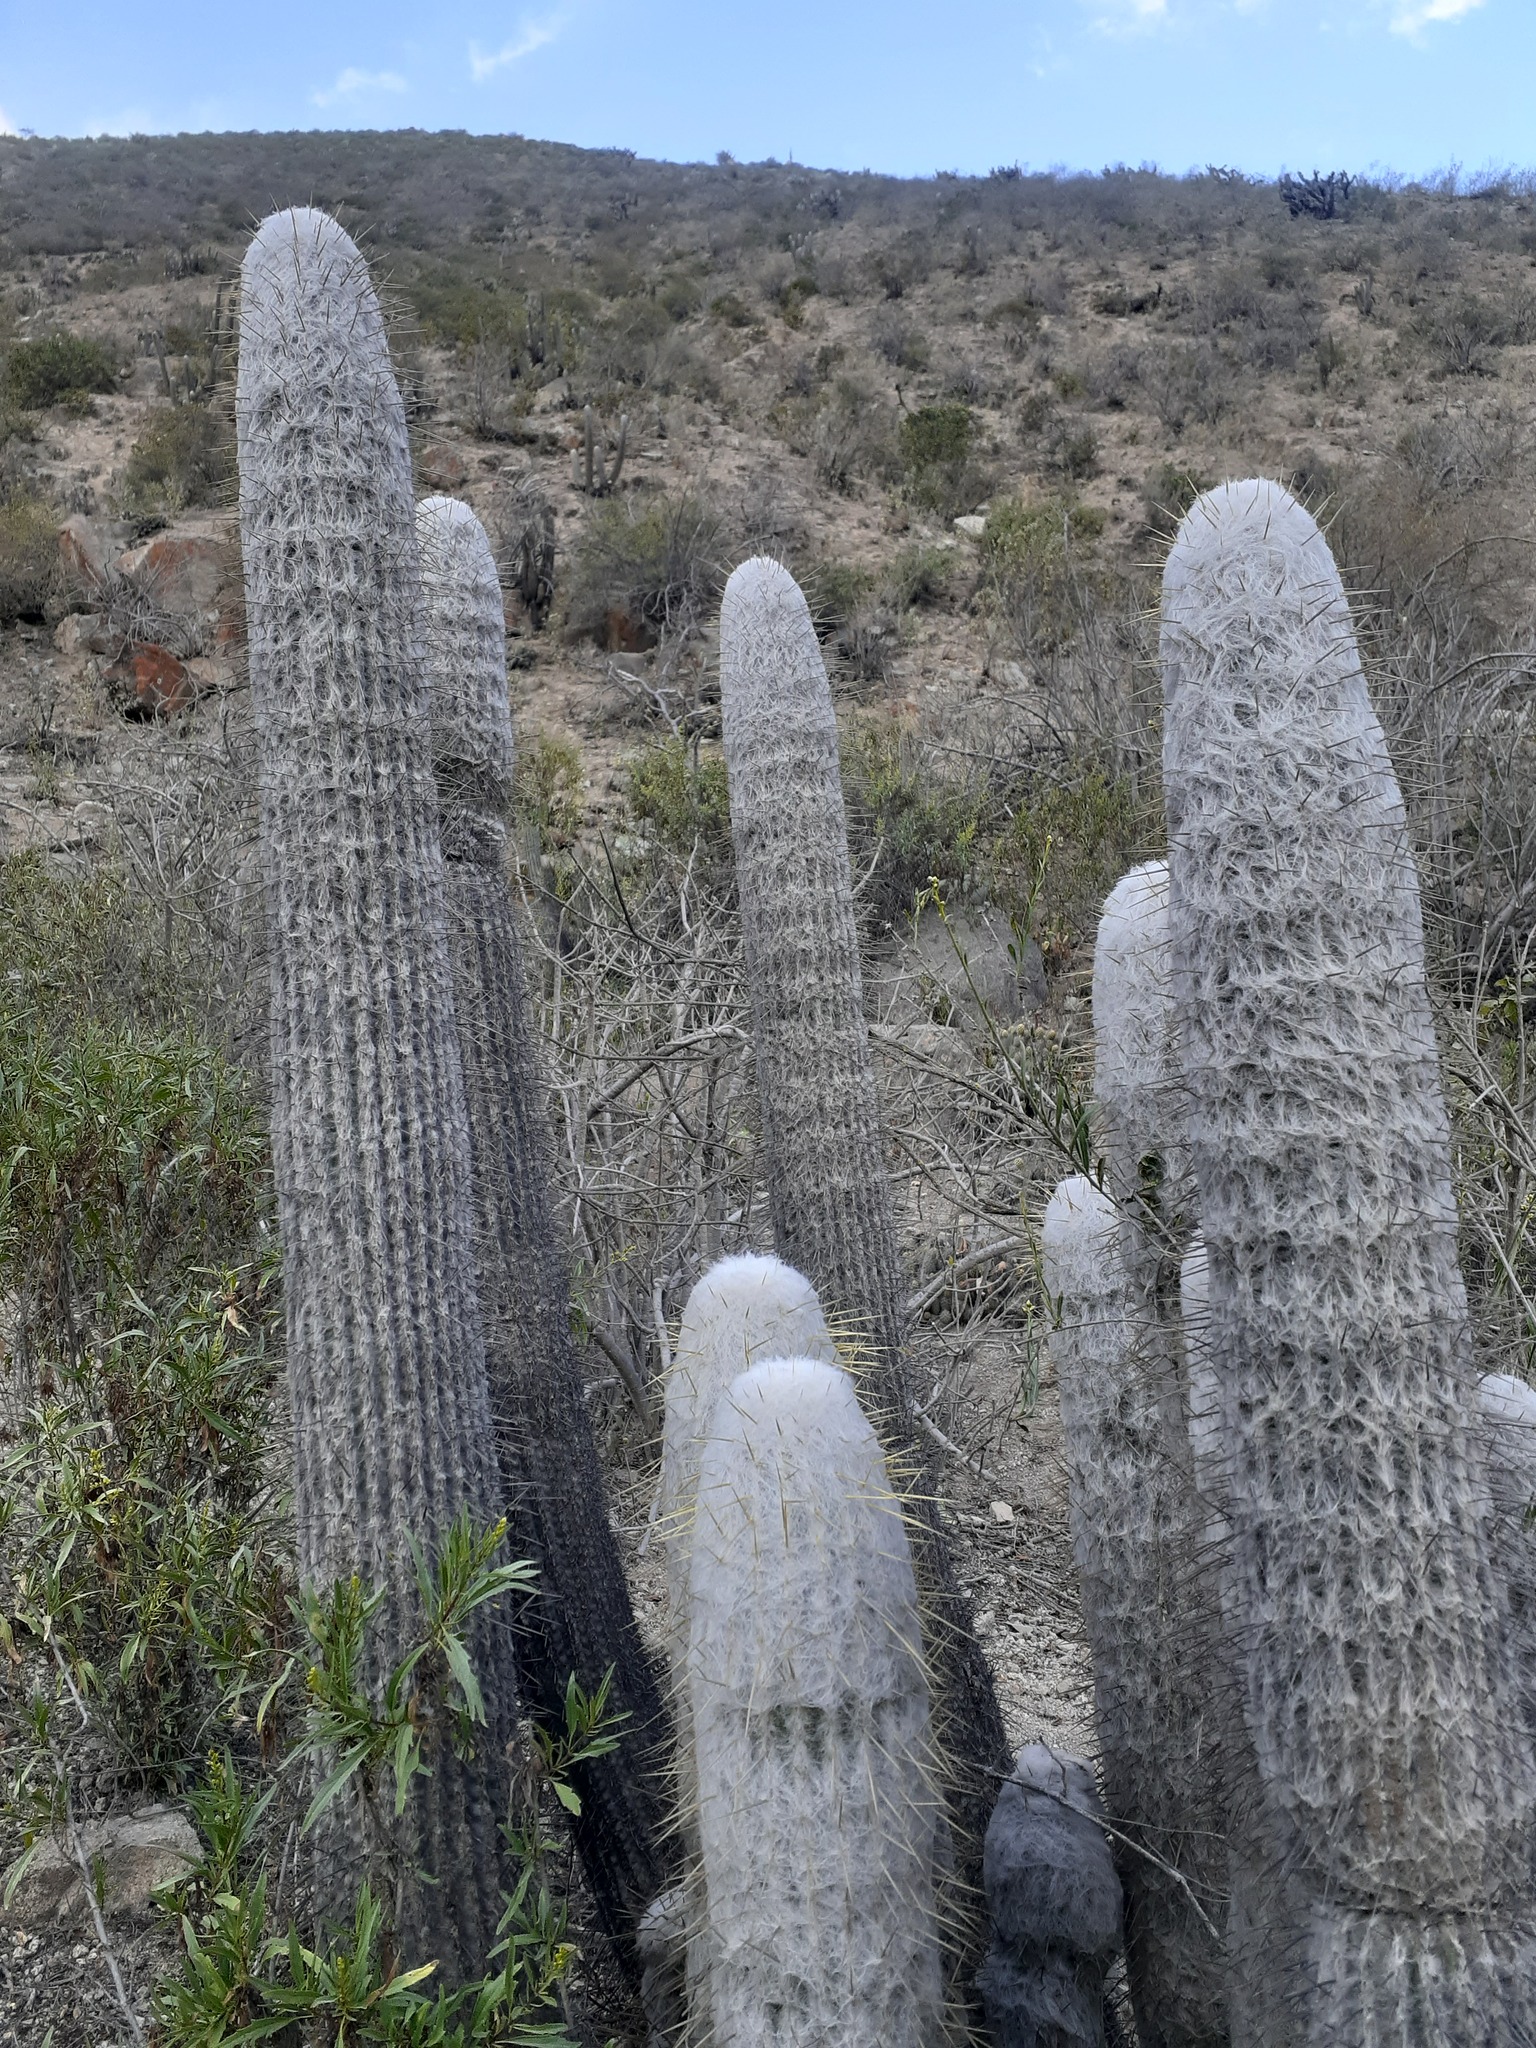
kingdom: Plantae
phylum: Tracheophyta
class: Magnoliopsida
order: Caryophyllales
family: Cactaceae
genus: Espostoa
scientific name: Espostoa melanostele
